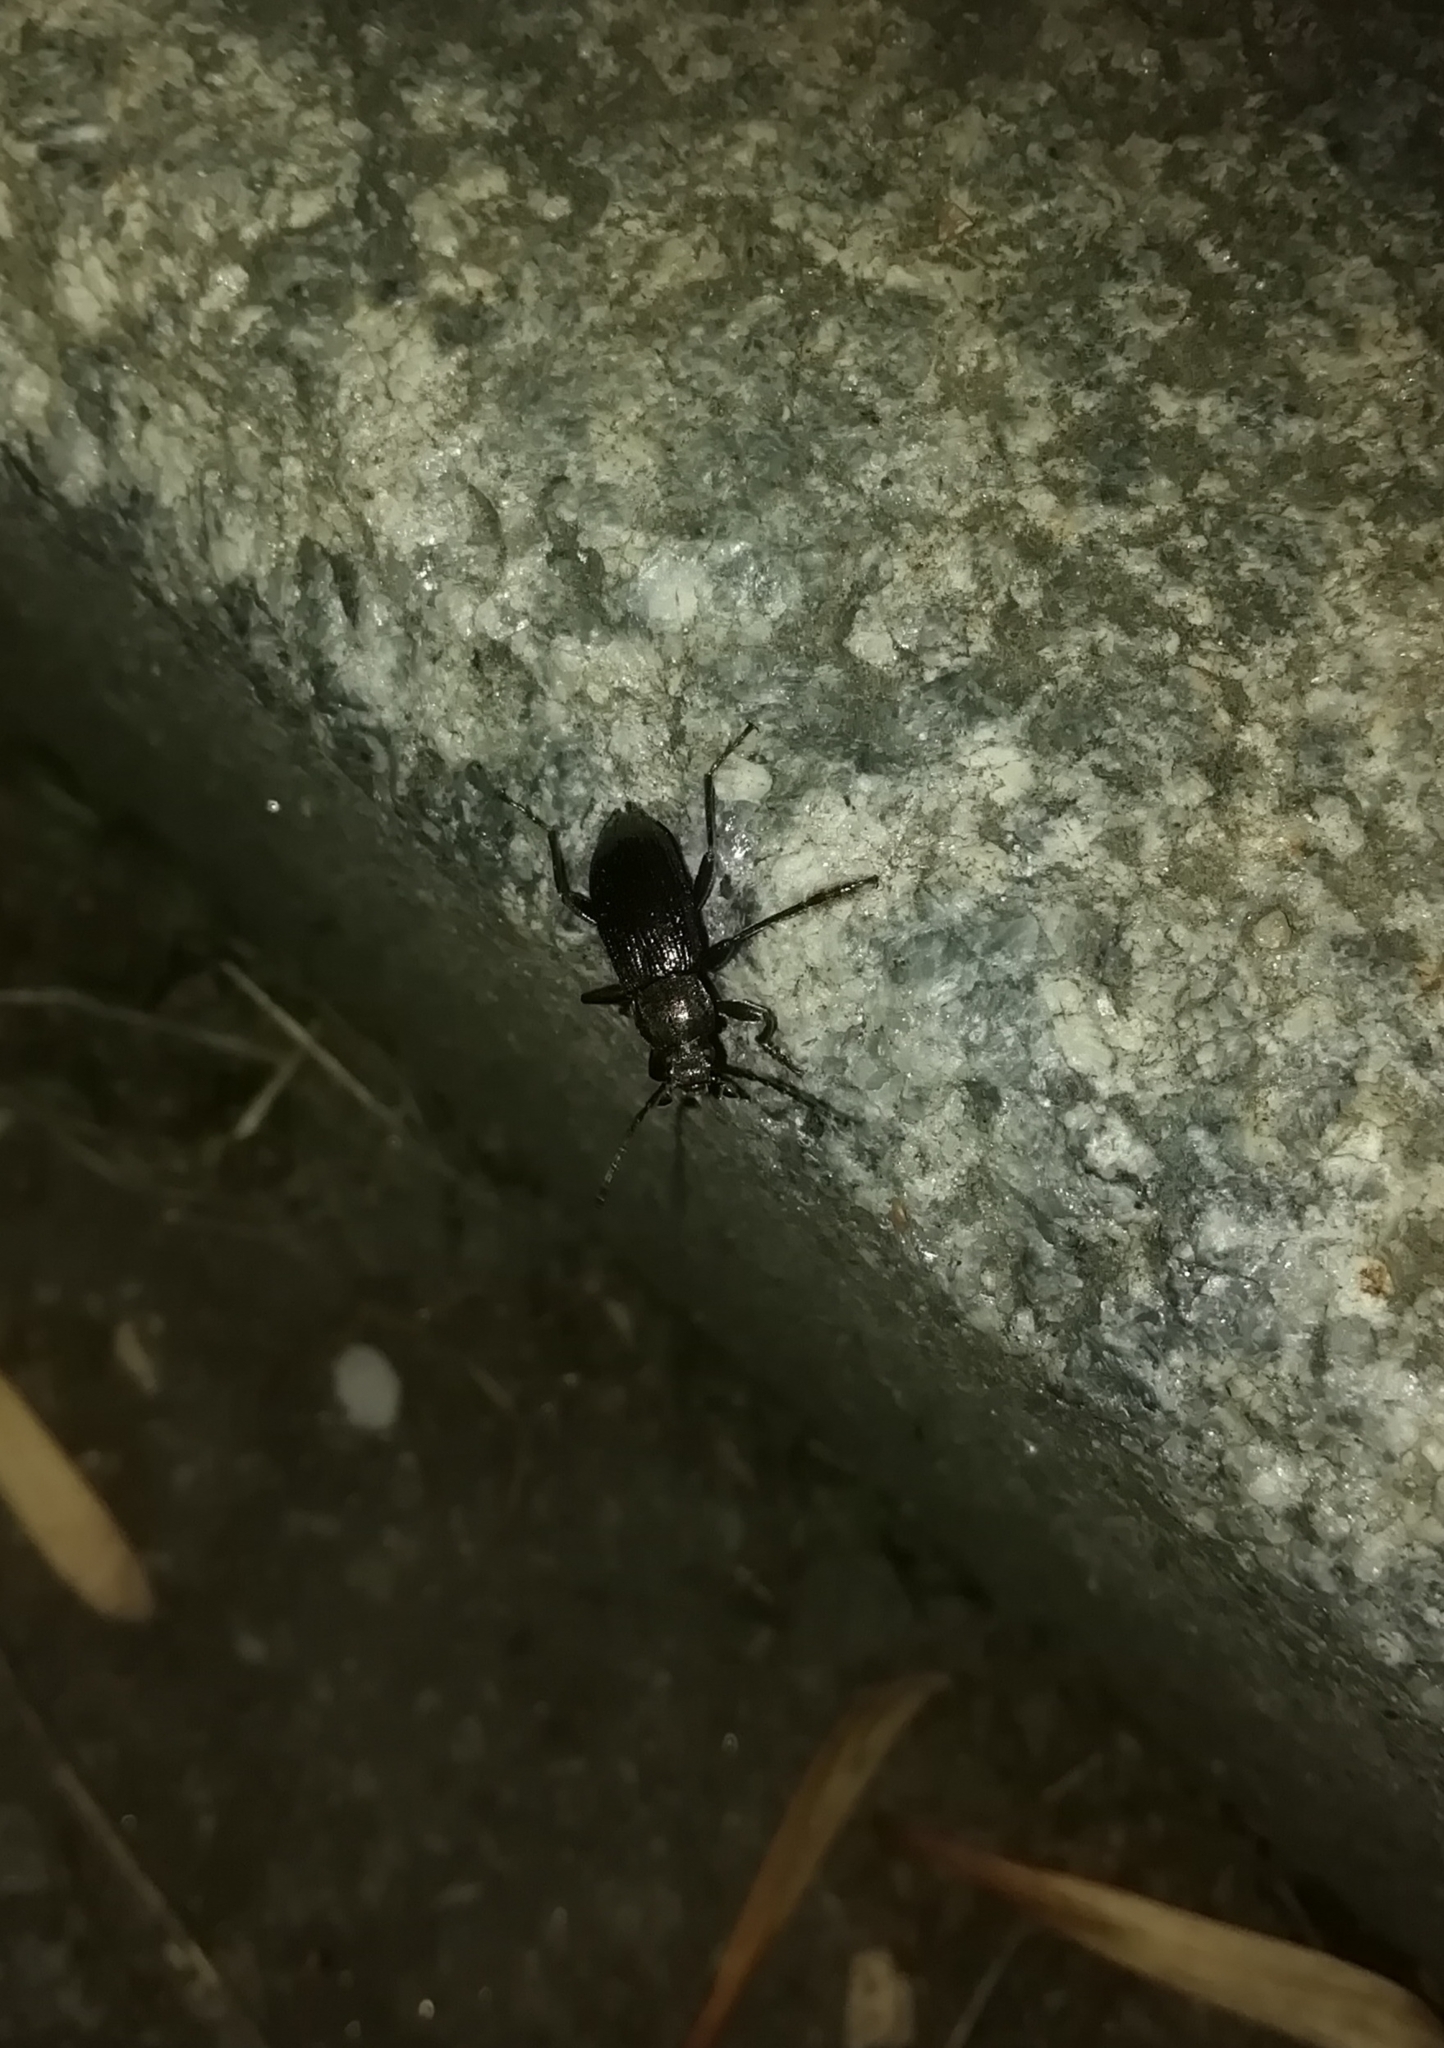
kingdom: Animalia
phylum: Arthropoda
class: Insecta
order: Coleoptera
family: Tenebrionidae
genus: Stenomax
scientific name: Stenomax aeneus
